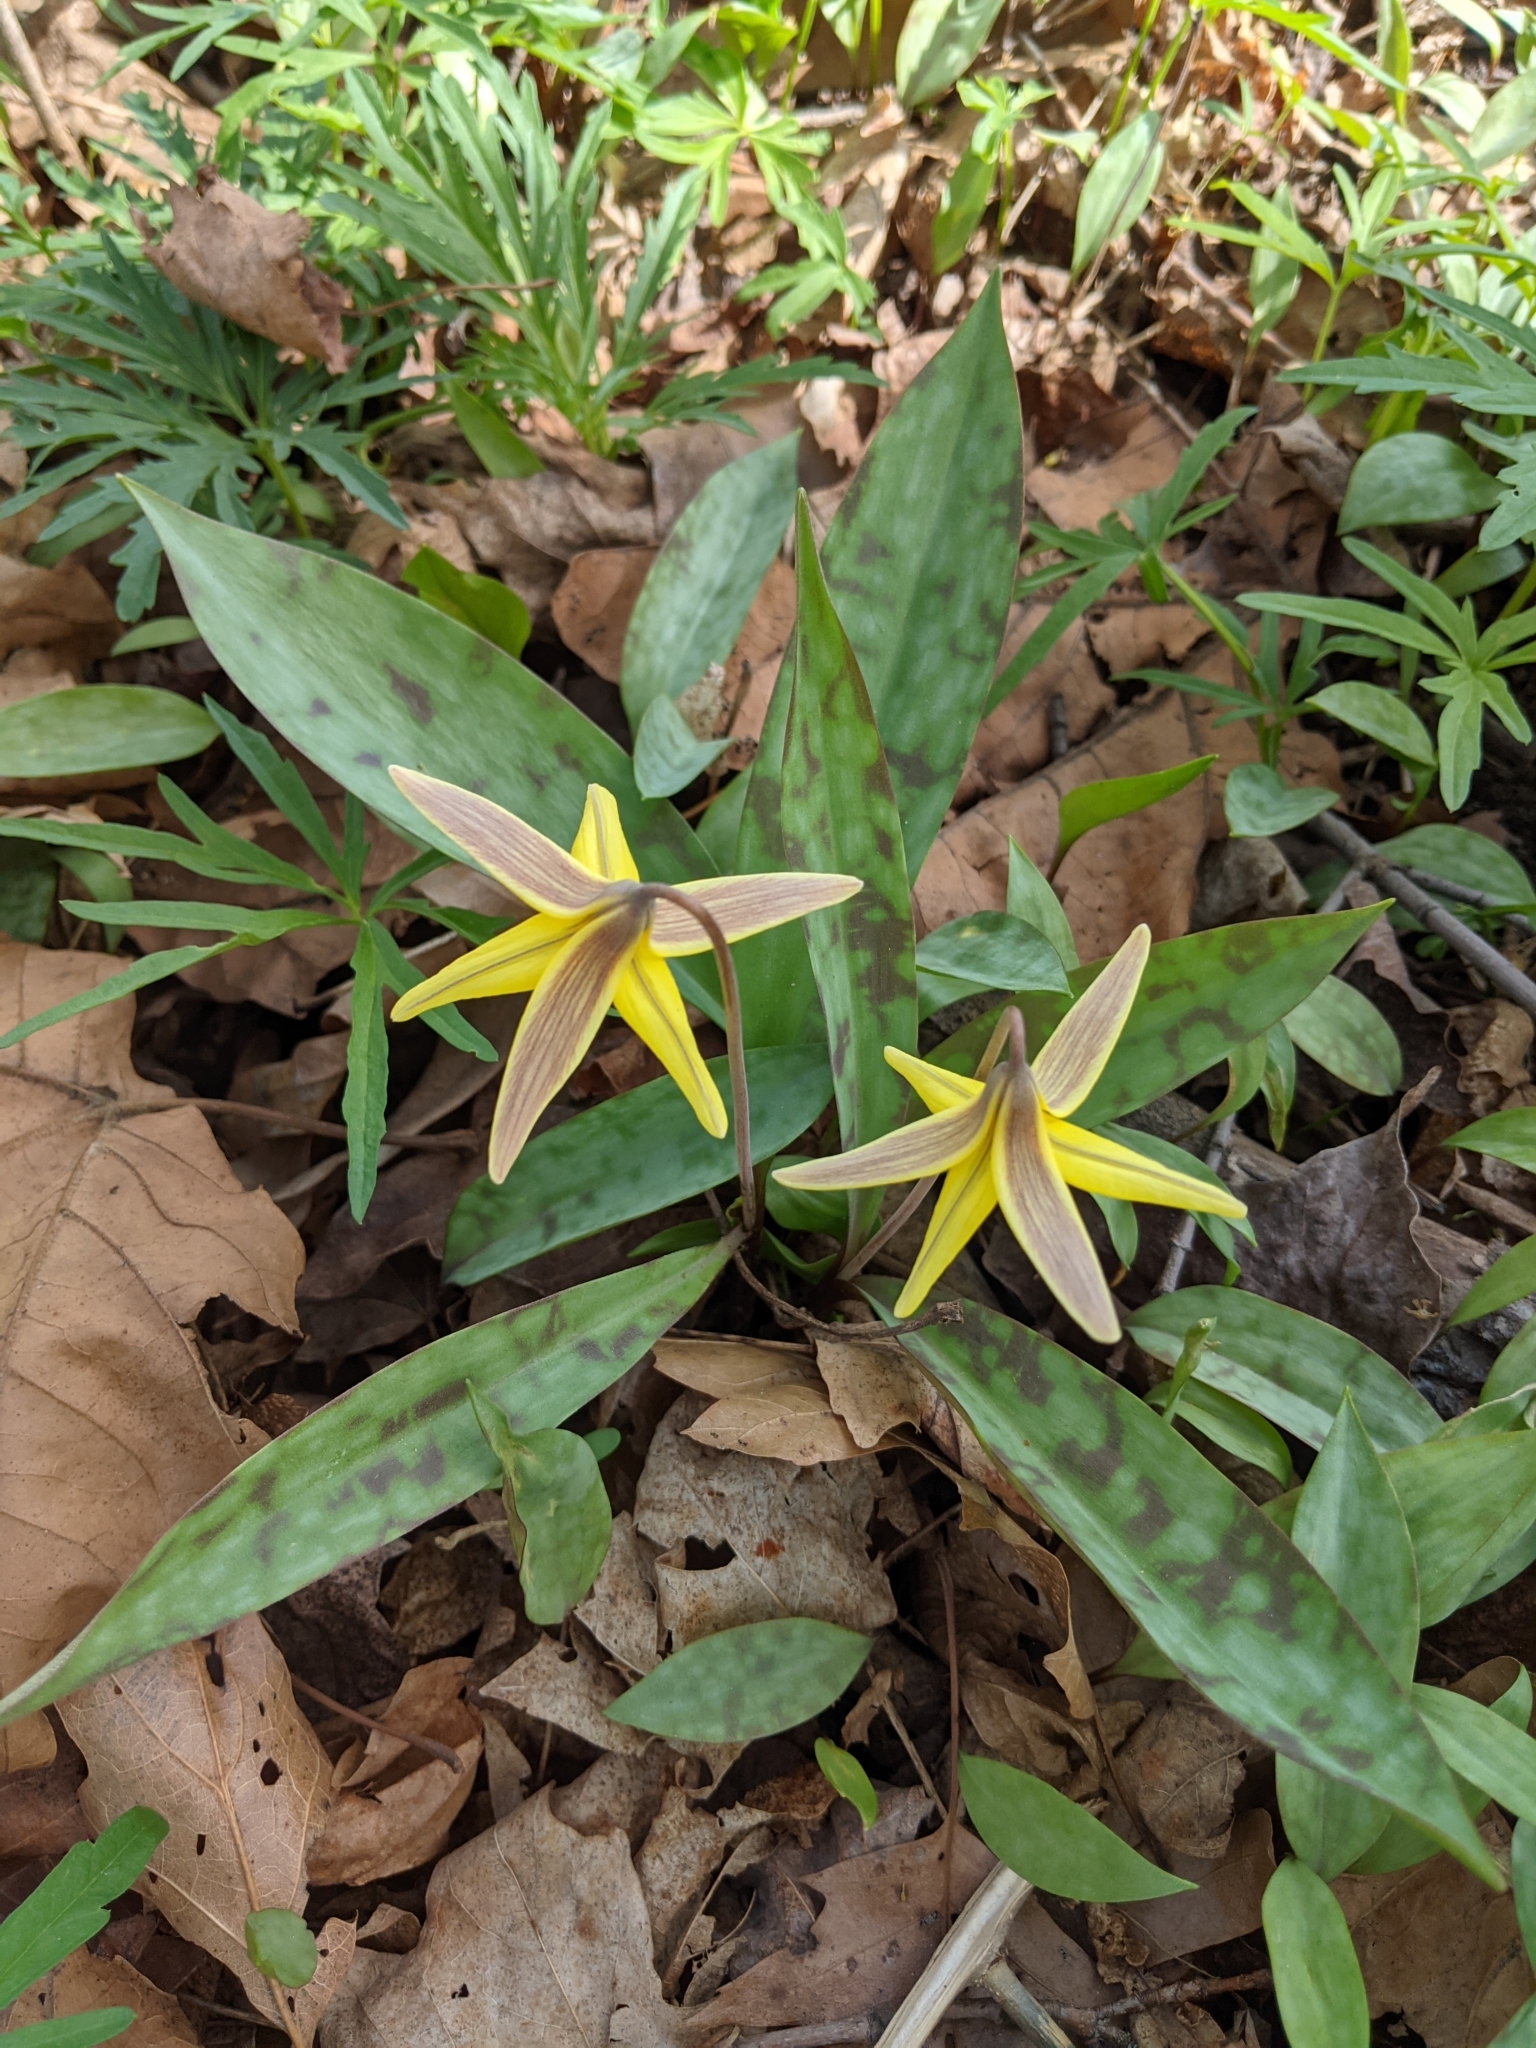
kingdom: Plantae
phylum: Tracheophyta
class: Liliopsida
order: Liliales
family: Liliaceae
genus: Erythronium
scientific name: Erythronium americanum
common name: Yellow adder's-tongue
